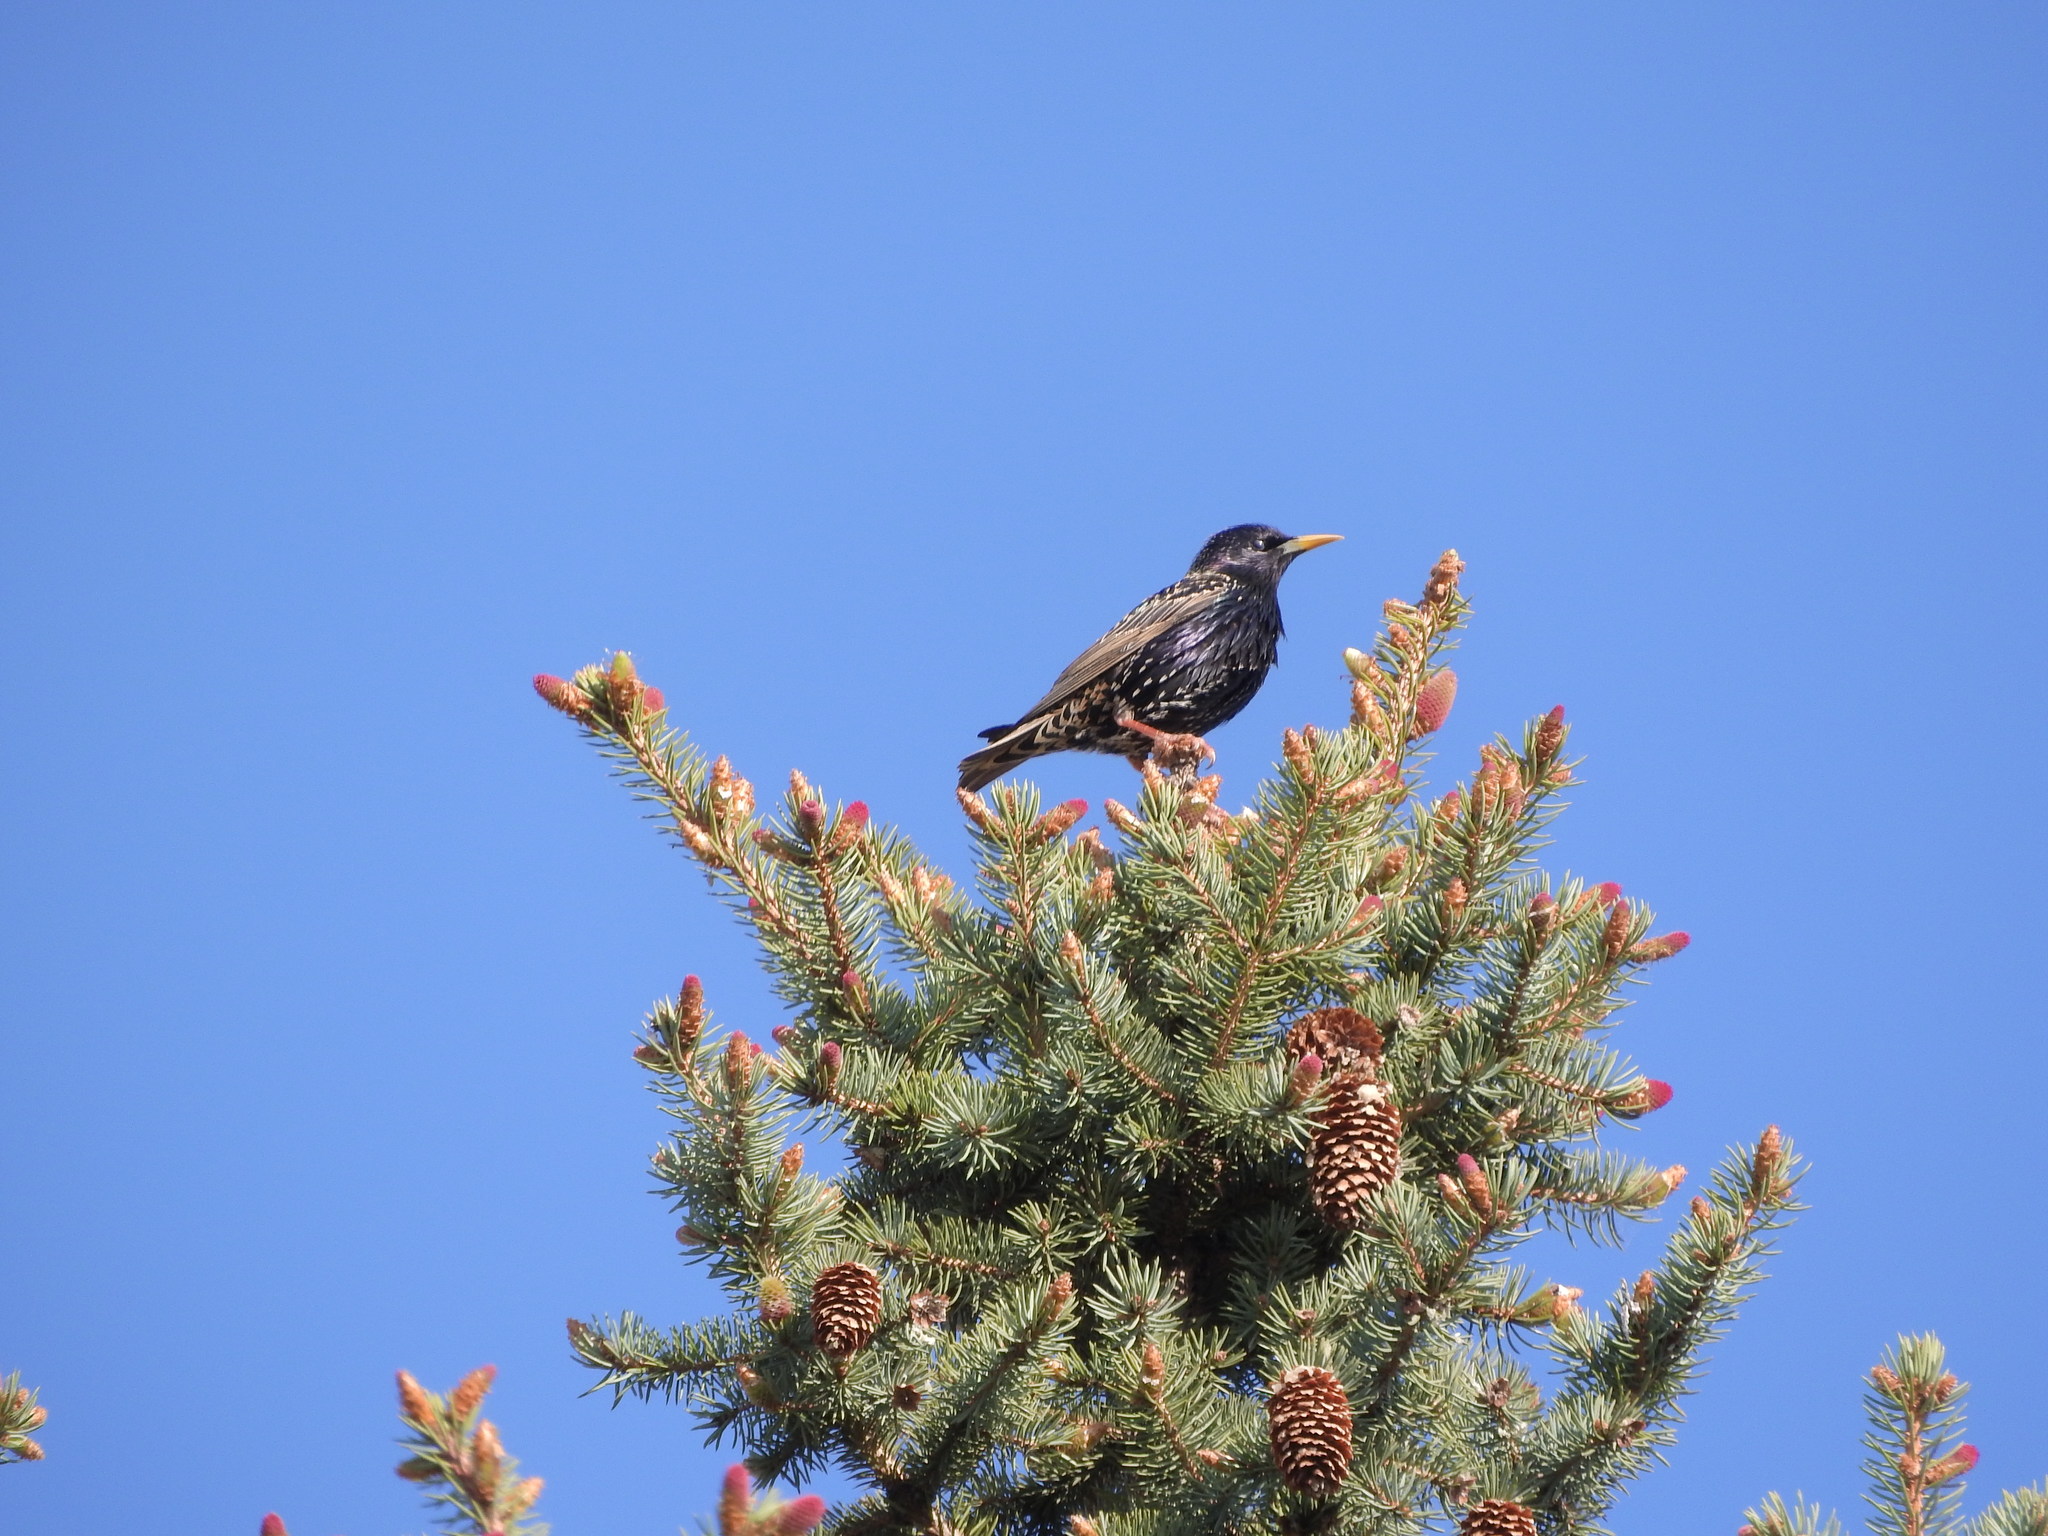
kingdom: Animalia
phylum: Chordata
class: Aves
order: Passeriformes
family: Sturnidae
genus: Sturnus
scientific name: Sturnus vulgaris
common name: Common starling
